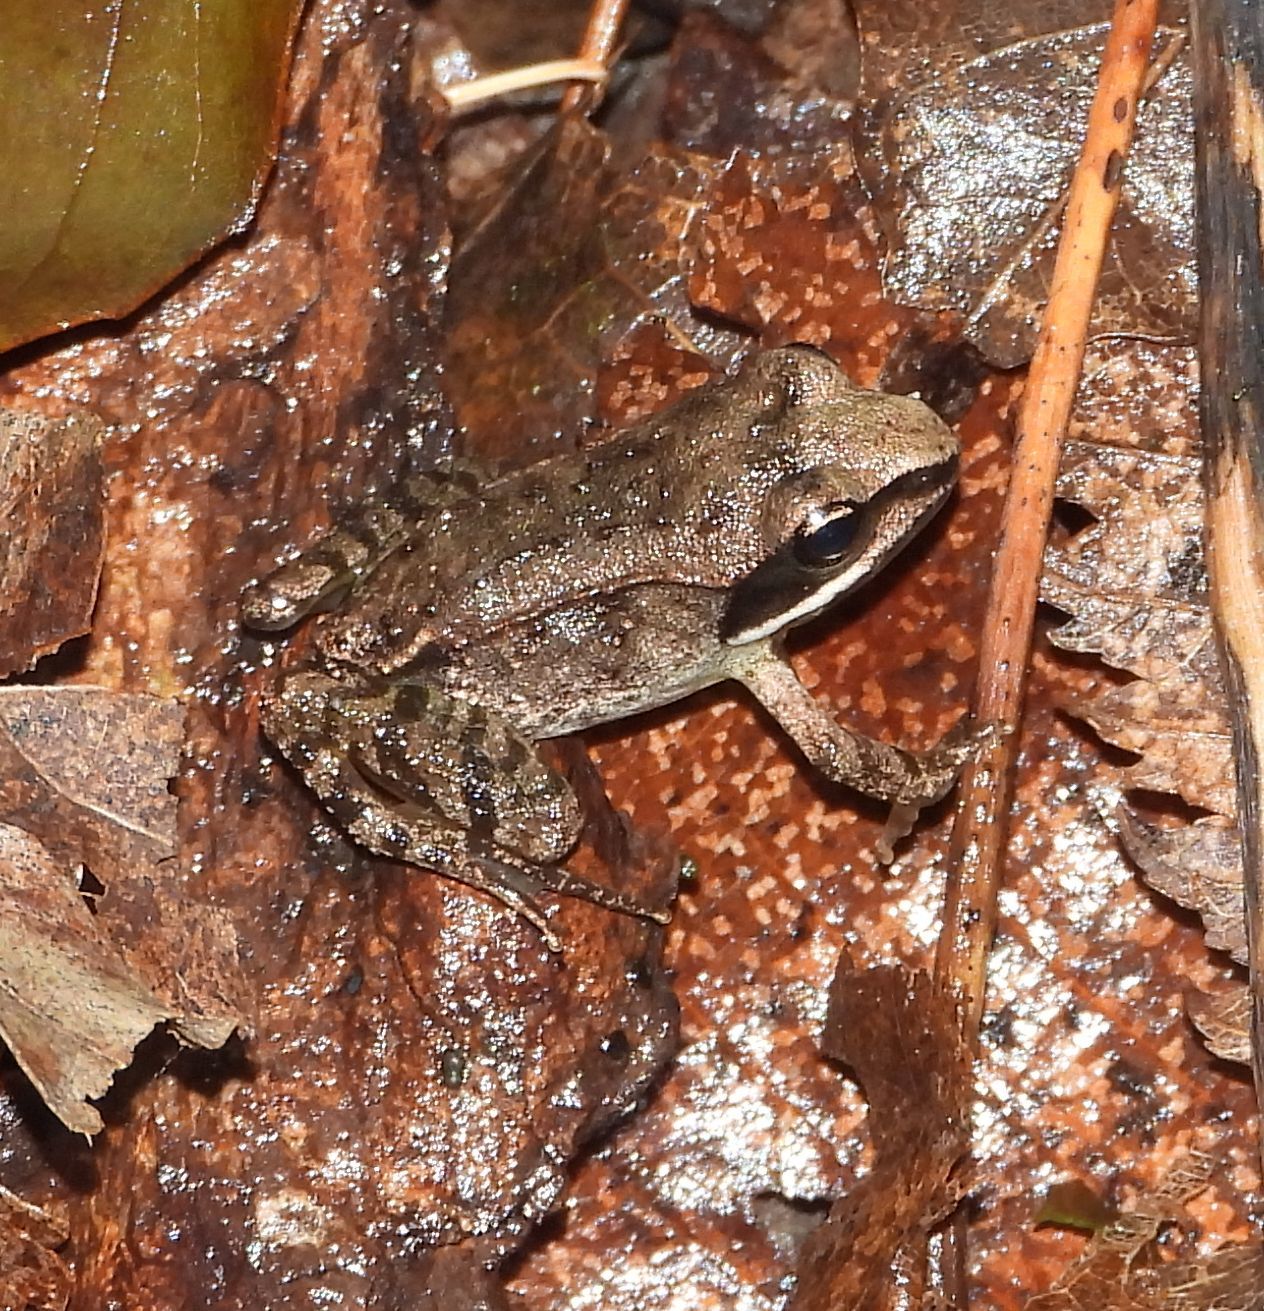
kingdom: Animalia
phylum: Chordata
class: Amphibia
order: Anura
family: Ranidae
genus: Lithobates
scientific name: Lithobates sylvaticus
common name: Wood frog
